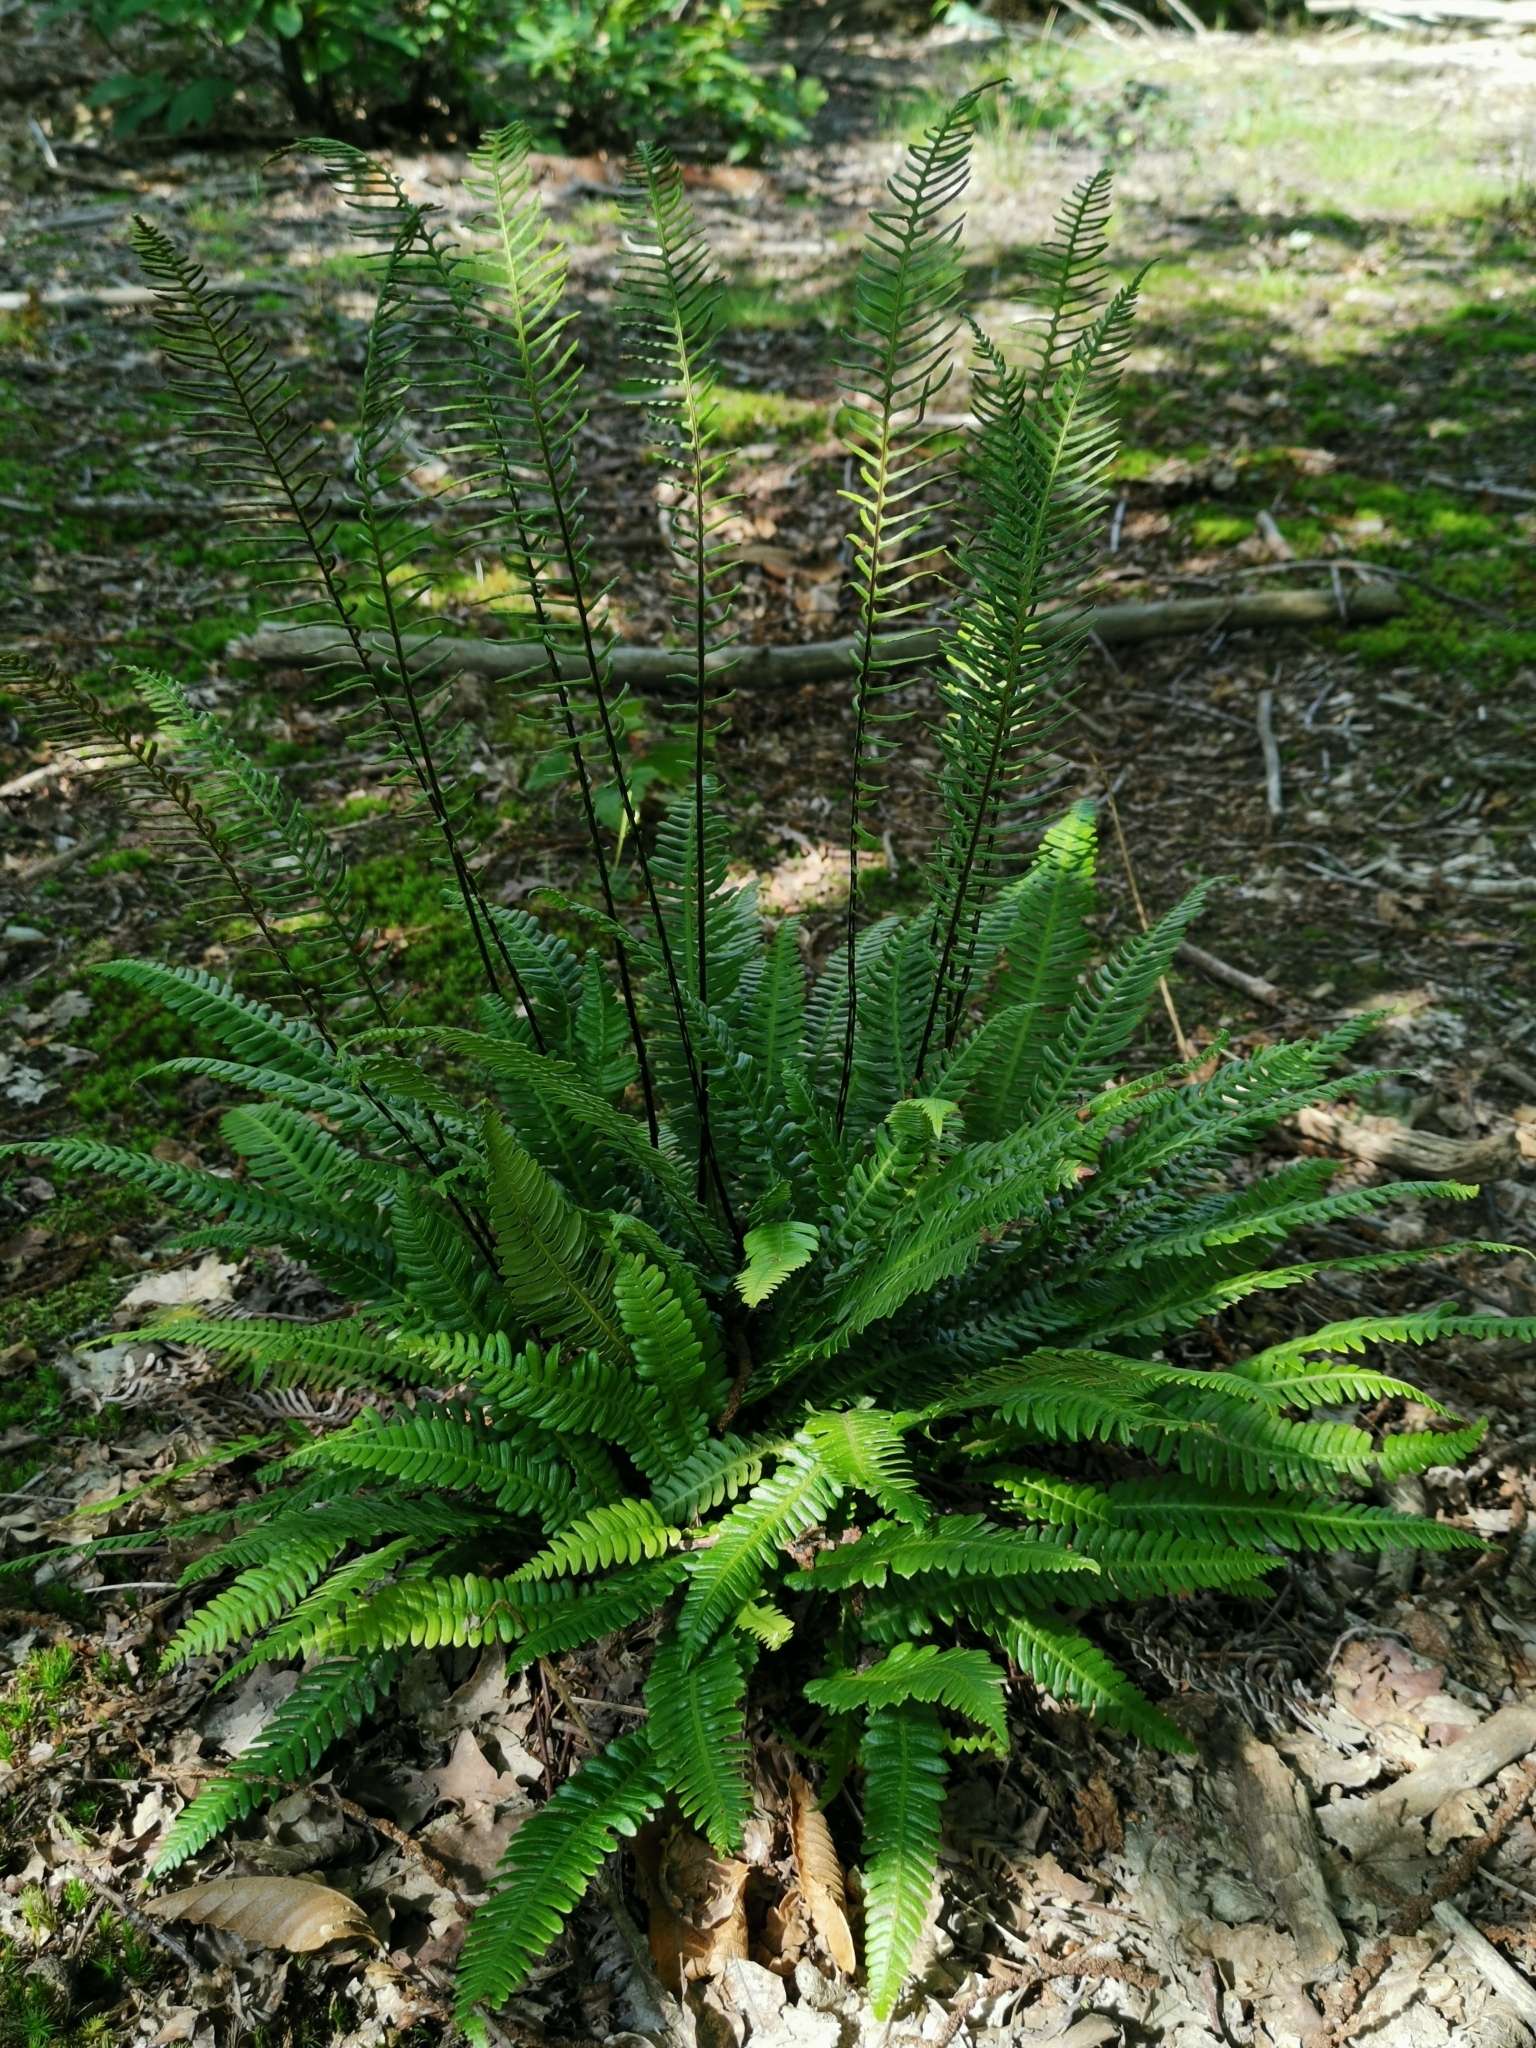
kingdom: Plantae
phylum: Tracheophyta
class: Polypodiopsida
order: Polypodiales
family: Blechnaceae
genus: Struthiopteris
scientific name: Struthiopteris spicant
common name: Deer fern
